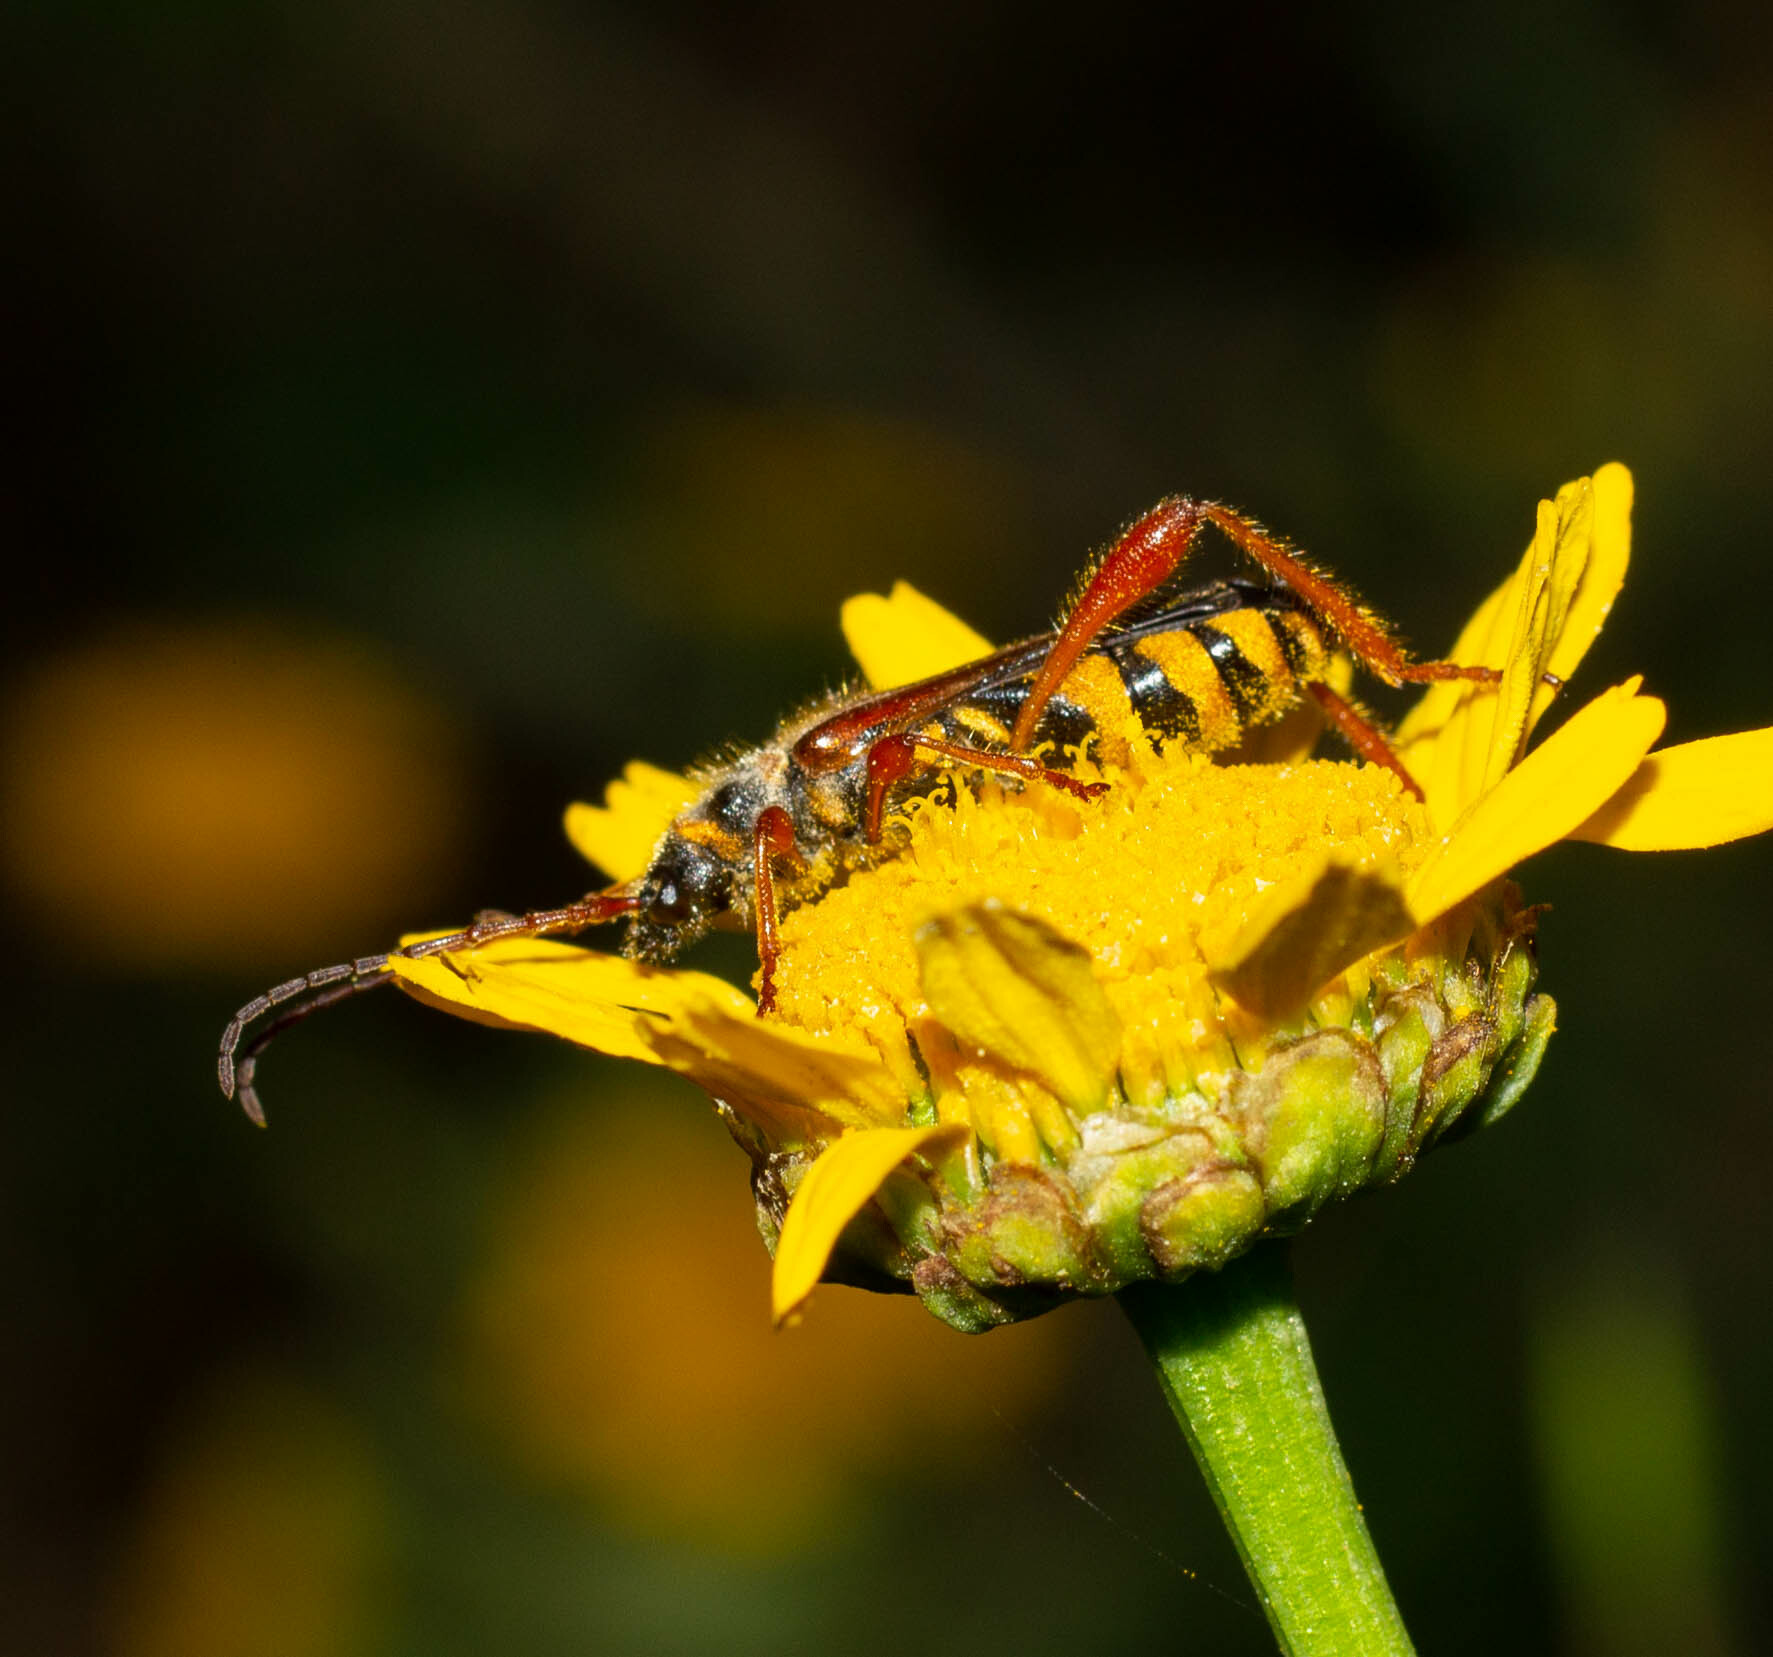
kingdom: Animalia
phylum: Arthropoda
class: Insecta
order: Coleoptera
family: Cerambycidae
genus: Stenopterus
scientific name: Stenopterus mauritanicus
